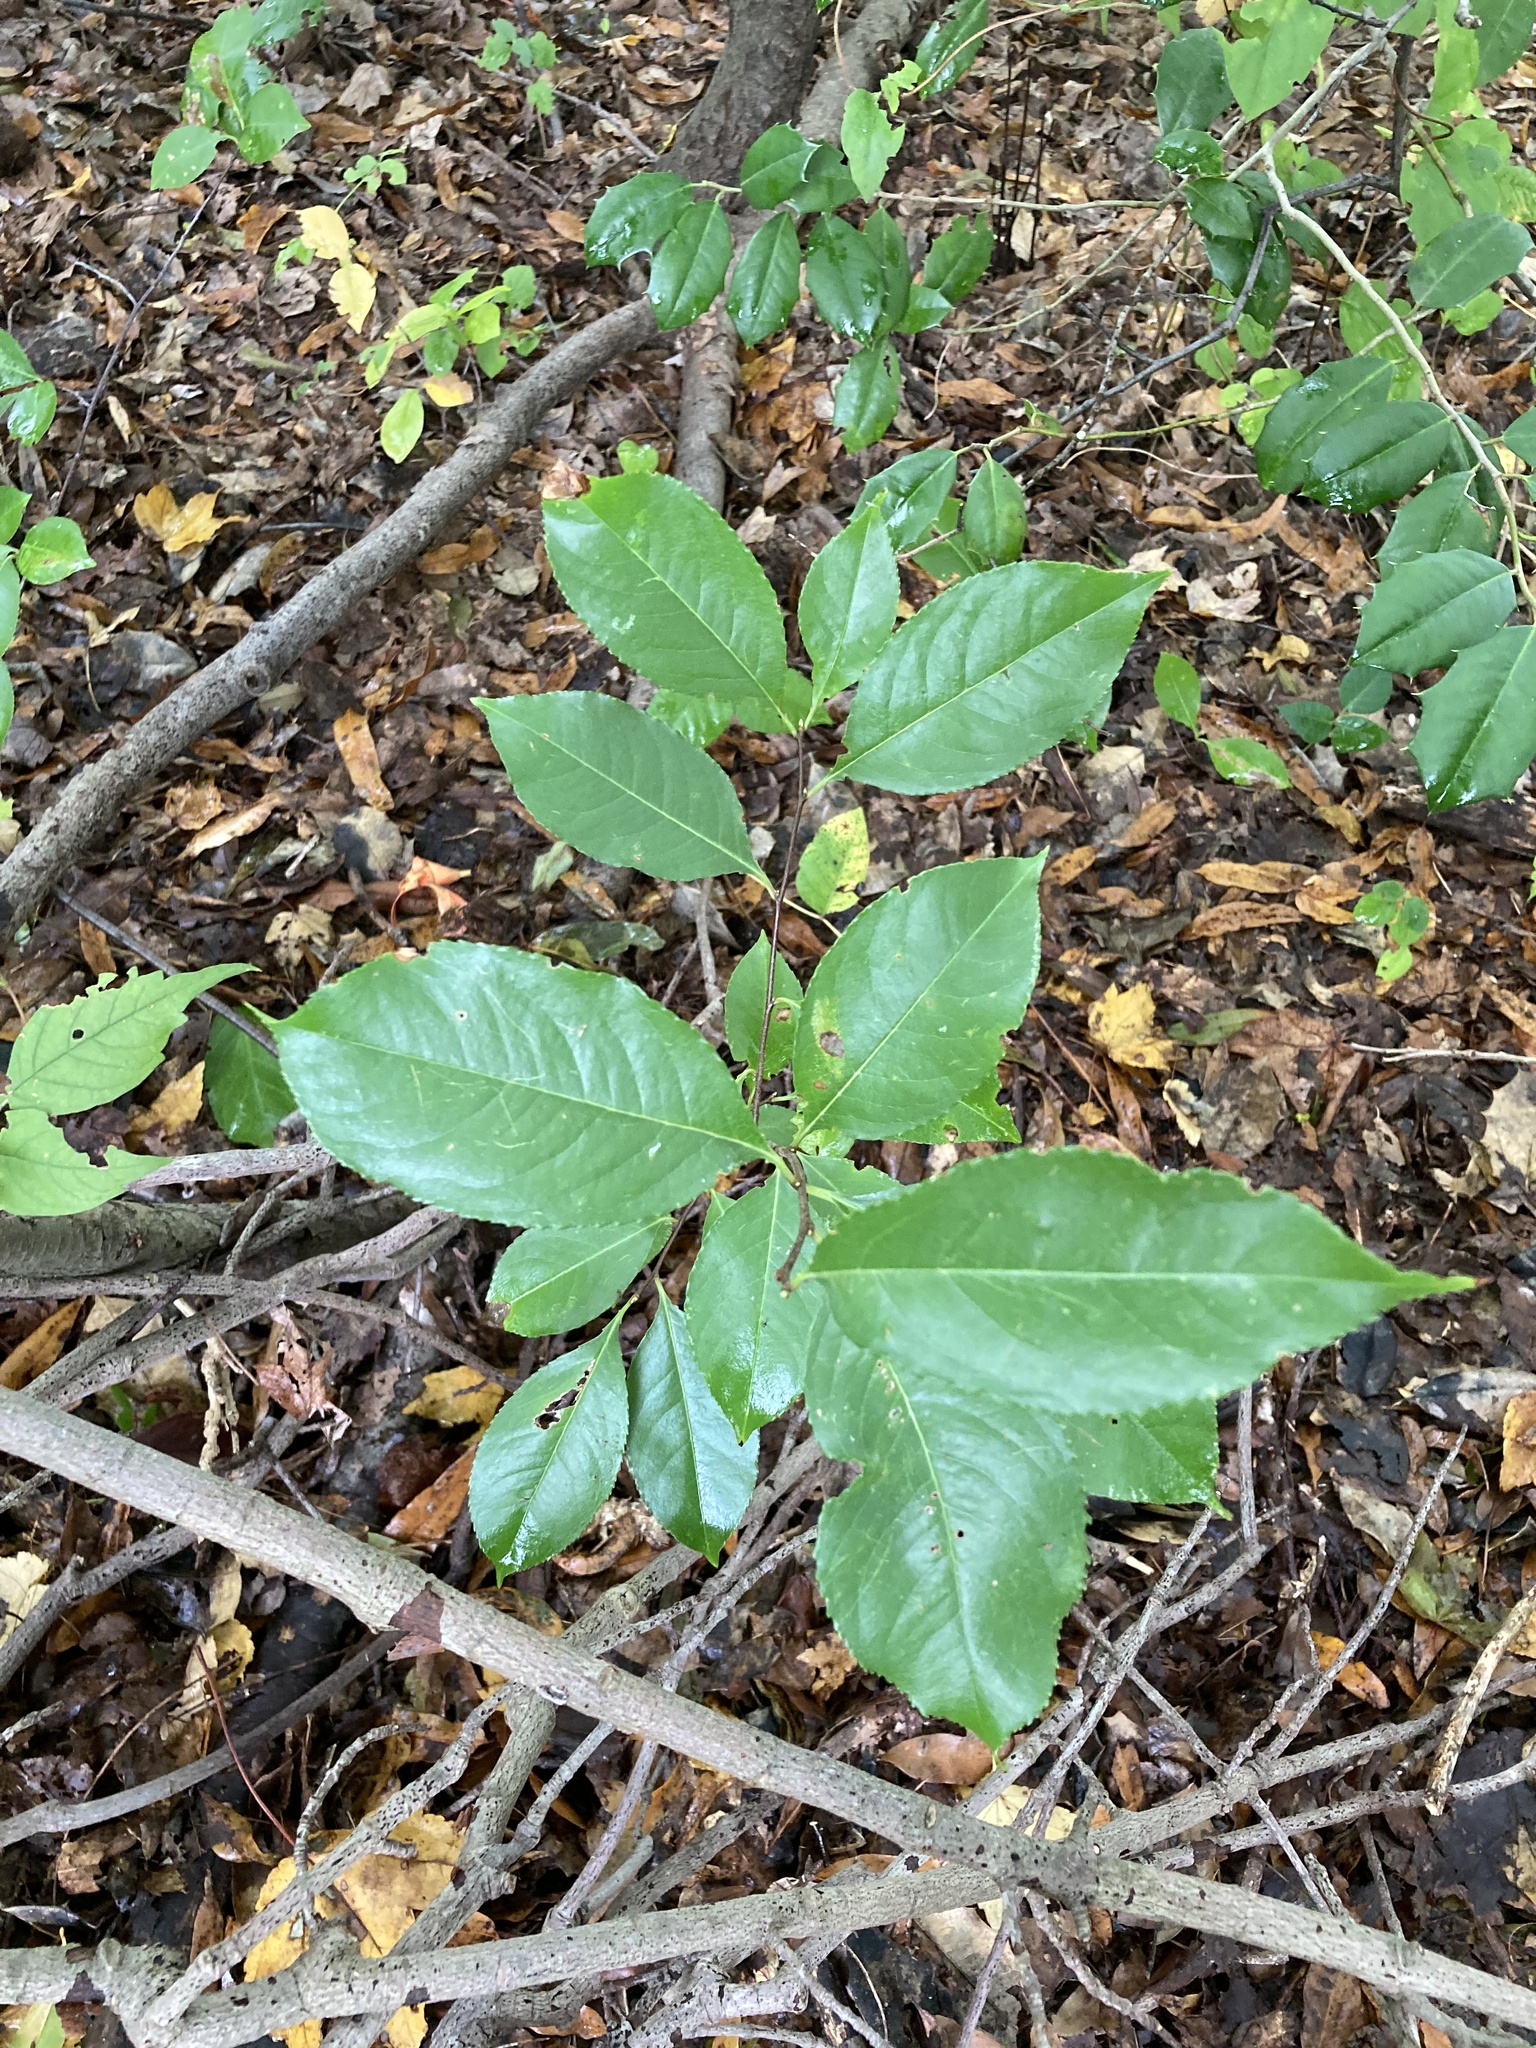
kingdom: Plantae
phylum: Tracheophyta
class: Magnoliopsida
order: Rosales
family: Rosaceae
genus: Prunus
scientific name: Prunus serotina
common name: Black cherry
